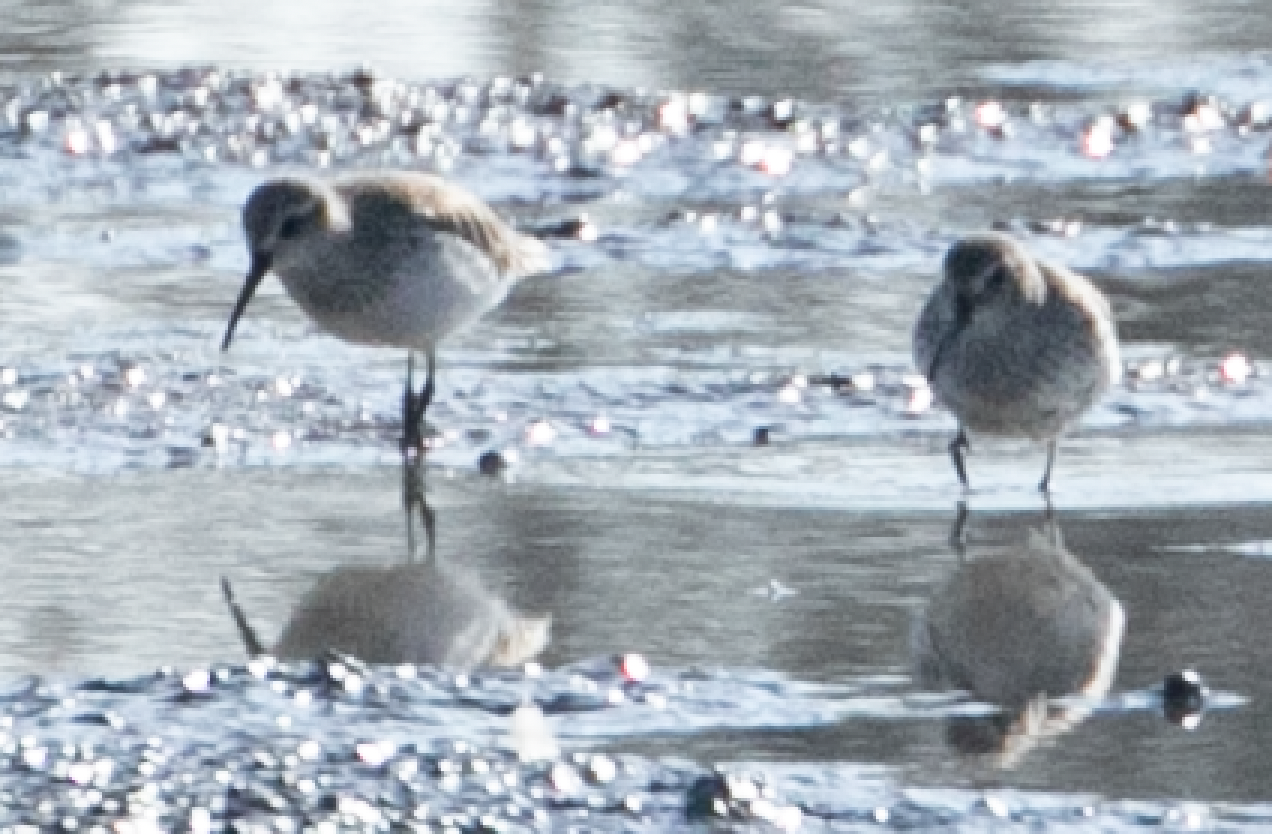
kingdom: Animalia
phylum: Chordata
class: Aves
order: Charadriiformes
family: Scolopacidae
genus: Calidris
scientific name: Calidris alpina
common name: Dunlin
